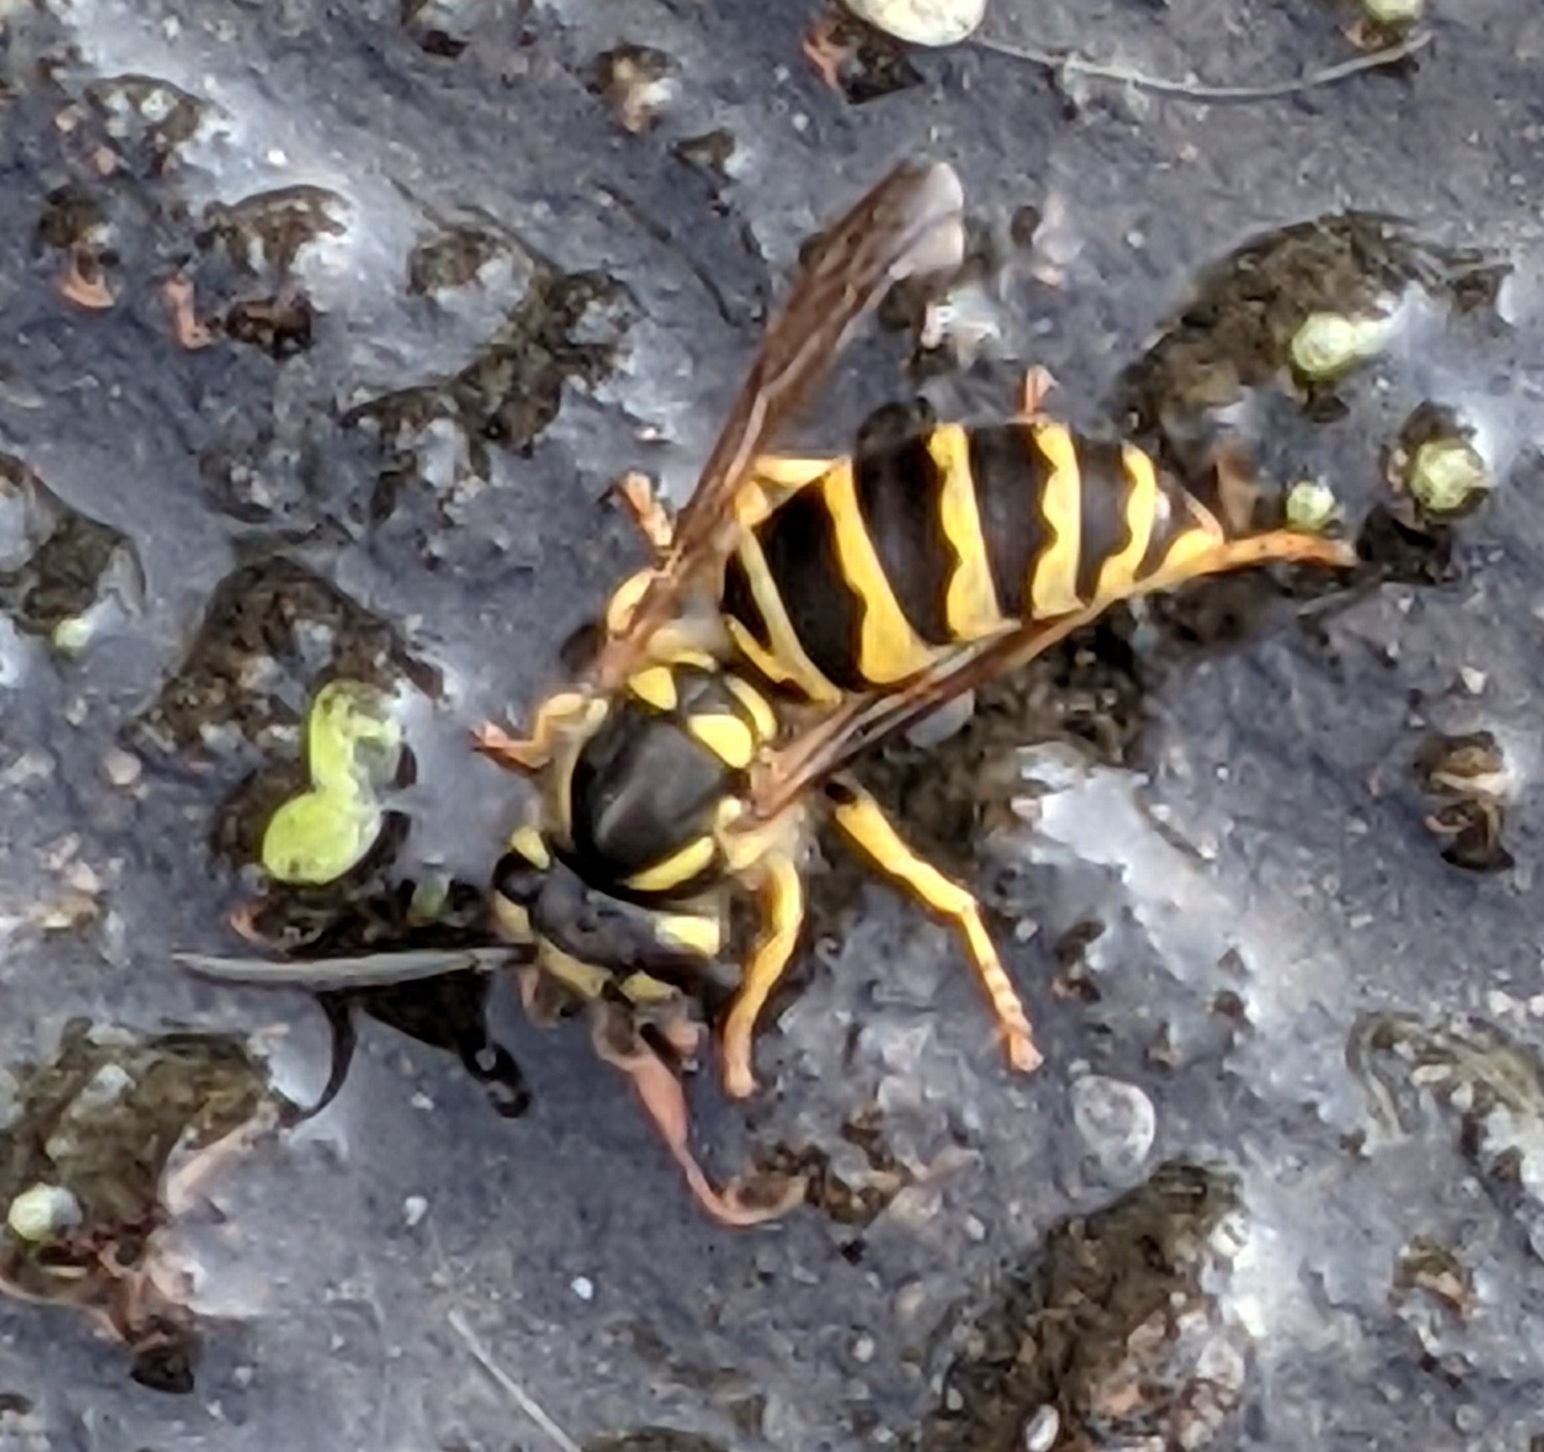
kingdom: Animalia
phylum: Arthropoda
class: Insecta
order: Hymenoptera
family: Vespidae
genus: Vespula
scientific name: Vespula maculifrons
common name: Eastern yellowjacket
